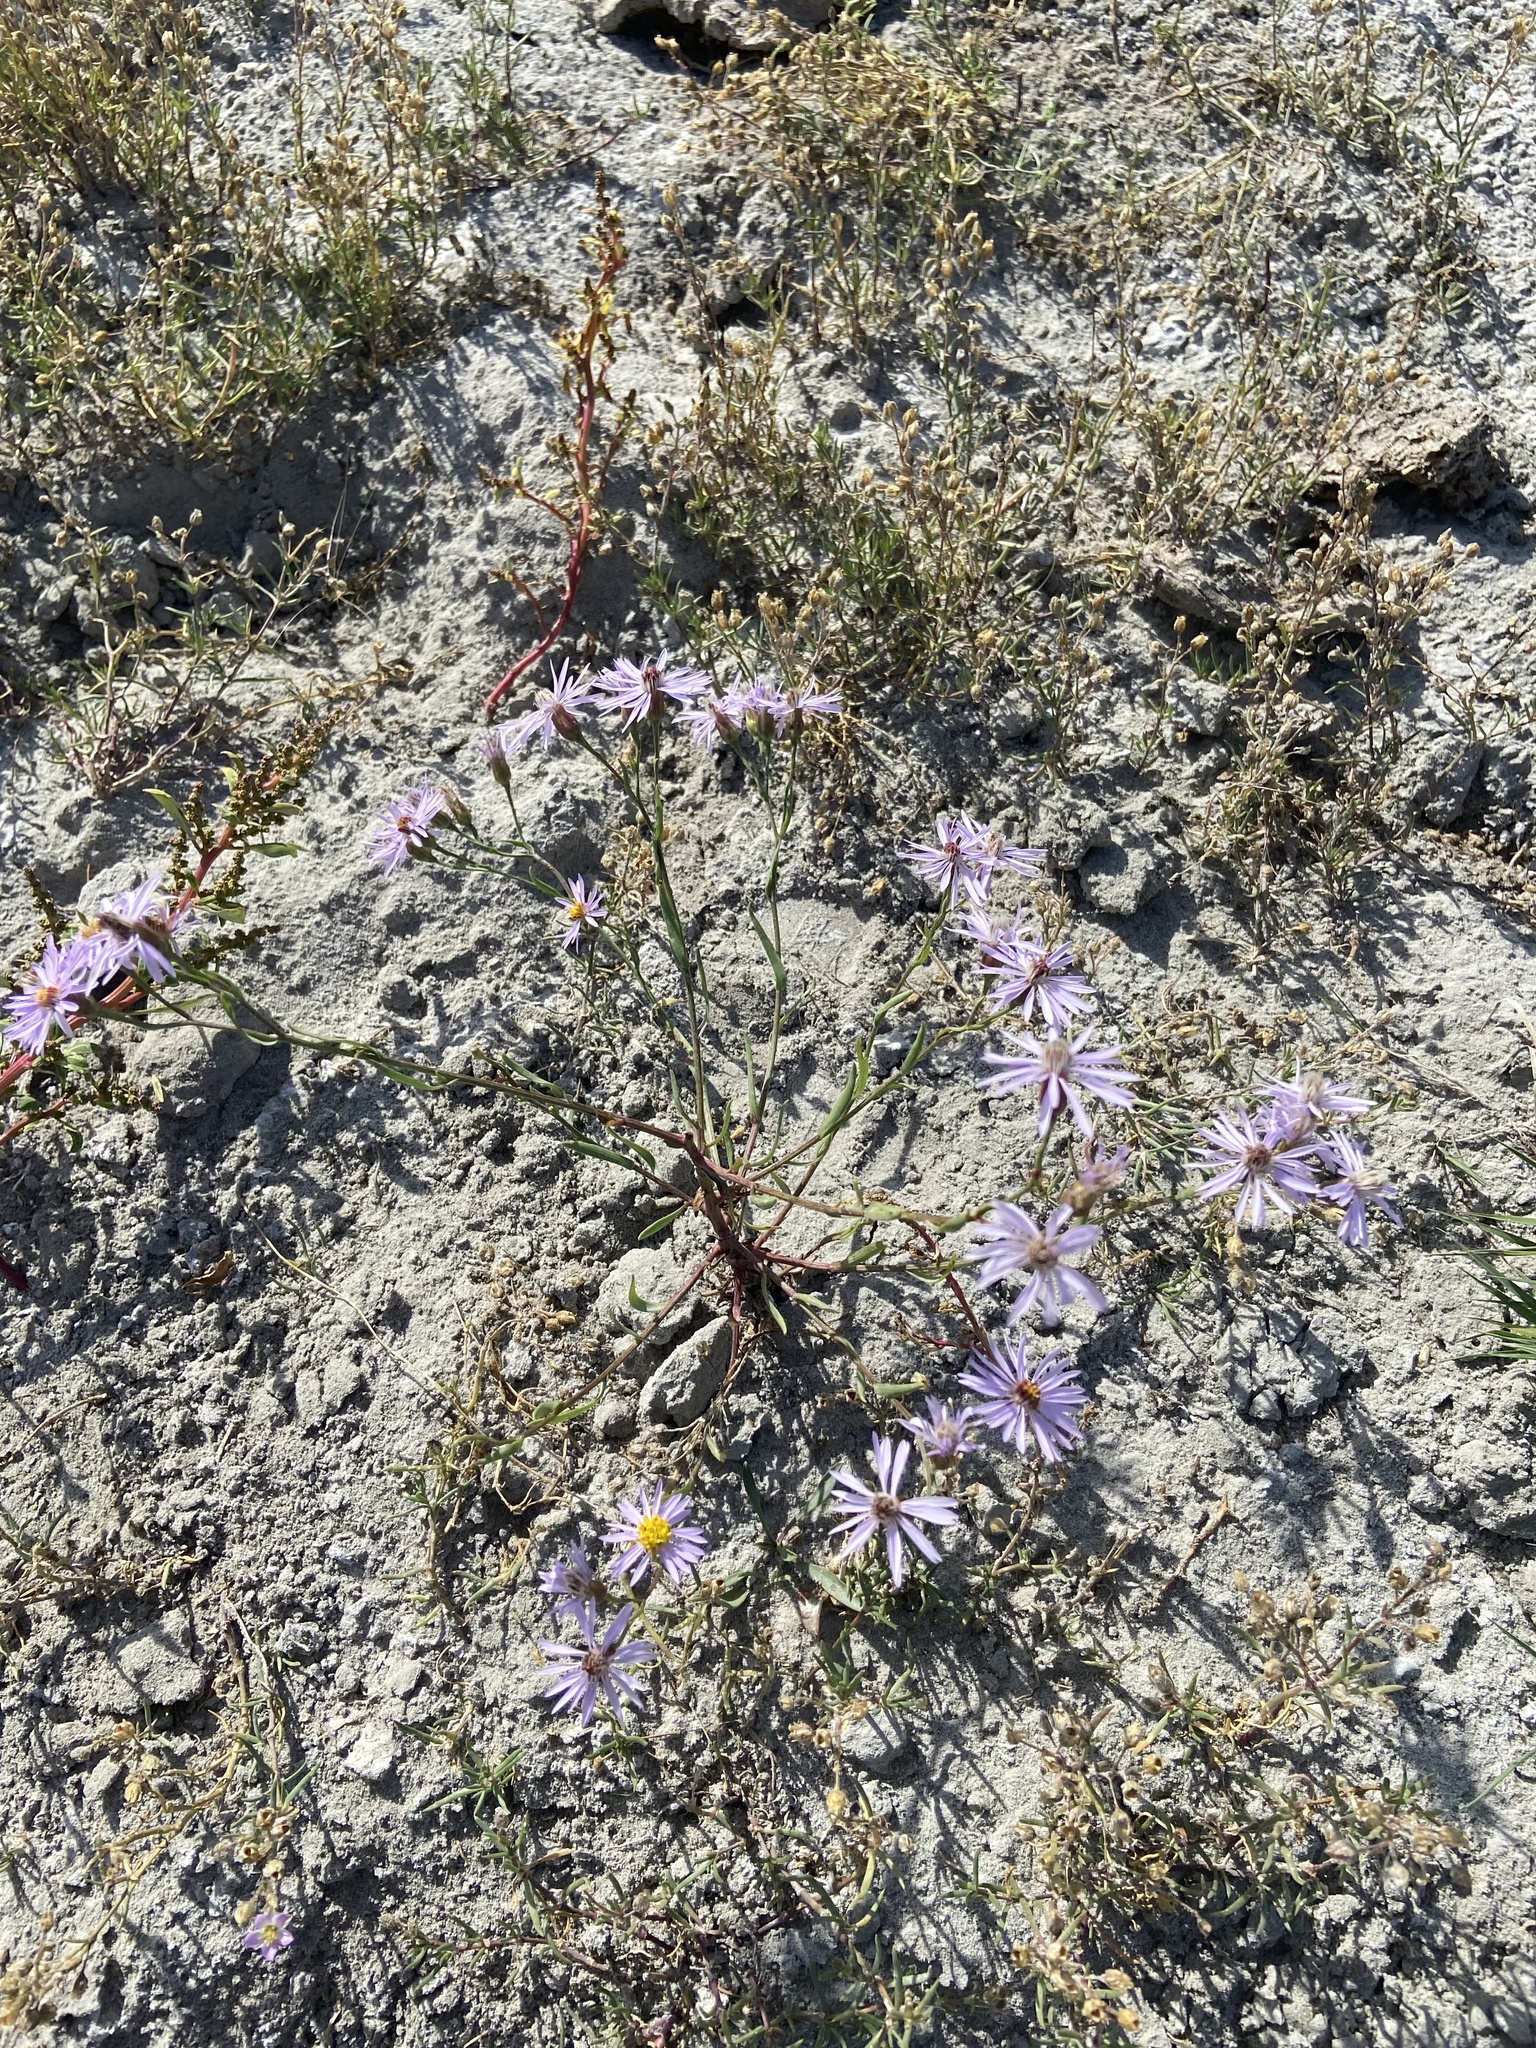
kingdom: Plantae
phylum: Tracheophyta
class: Magnoliopsida
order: Asterales
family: Asteraceae
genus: Tripolium
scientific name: Tripolium pannonicum
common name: Sea aster
